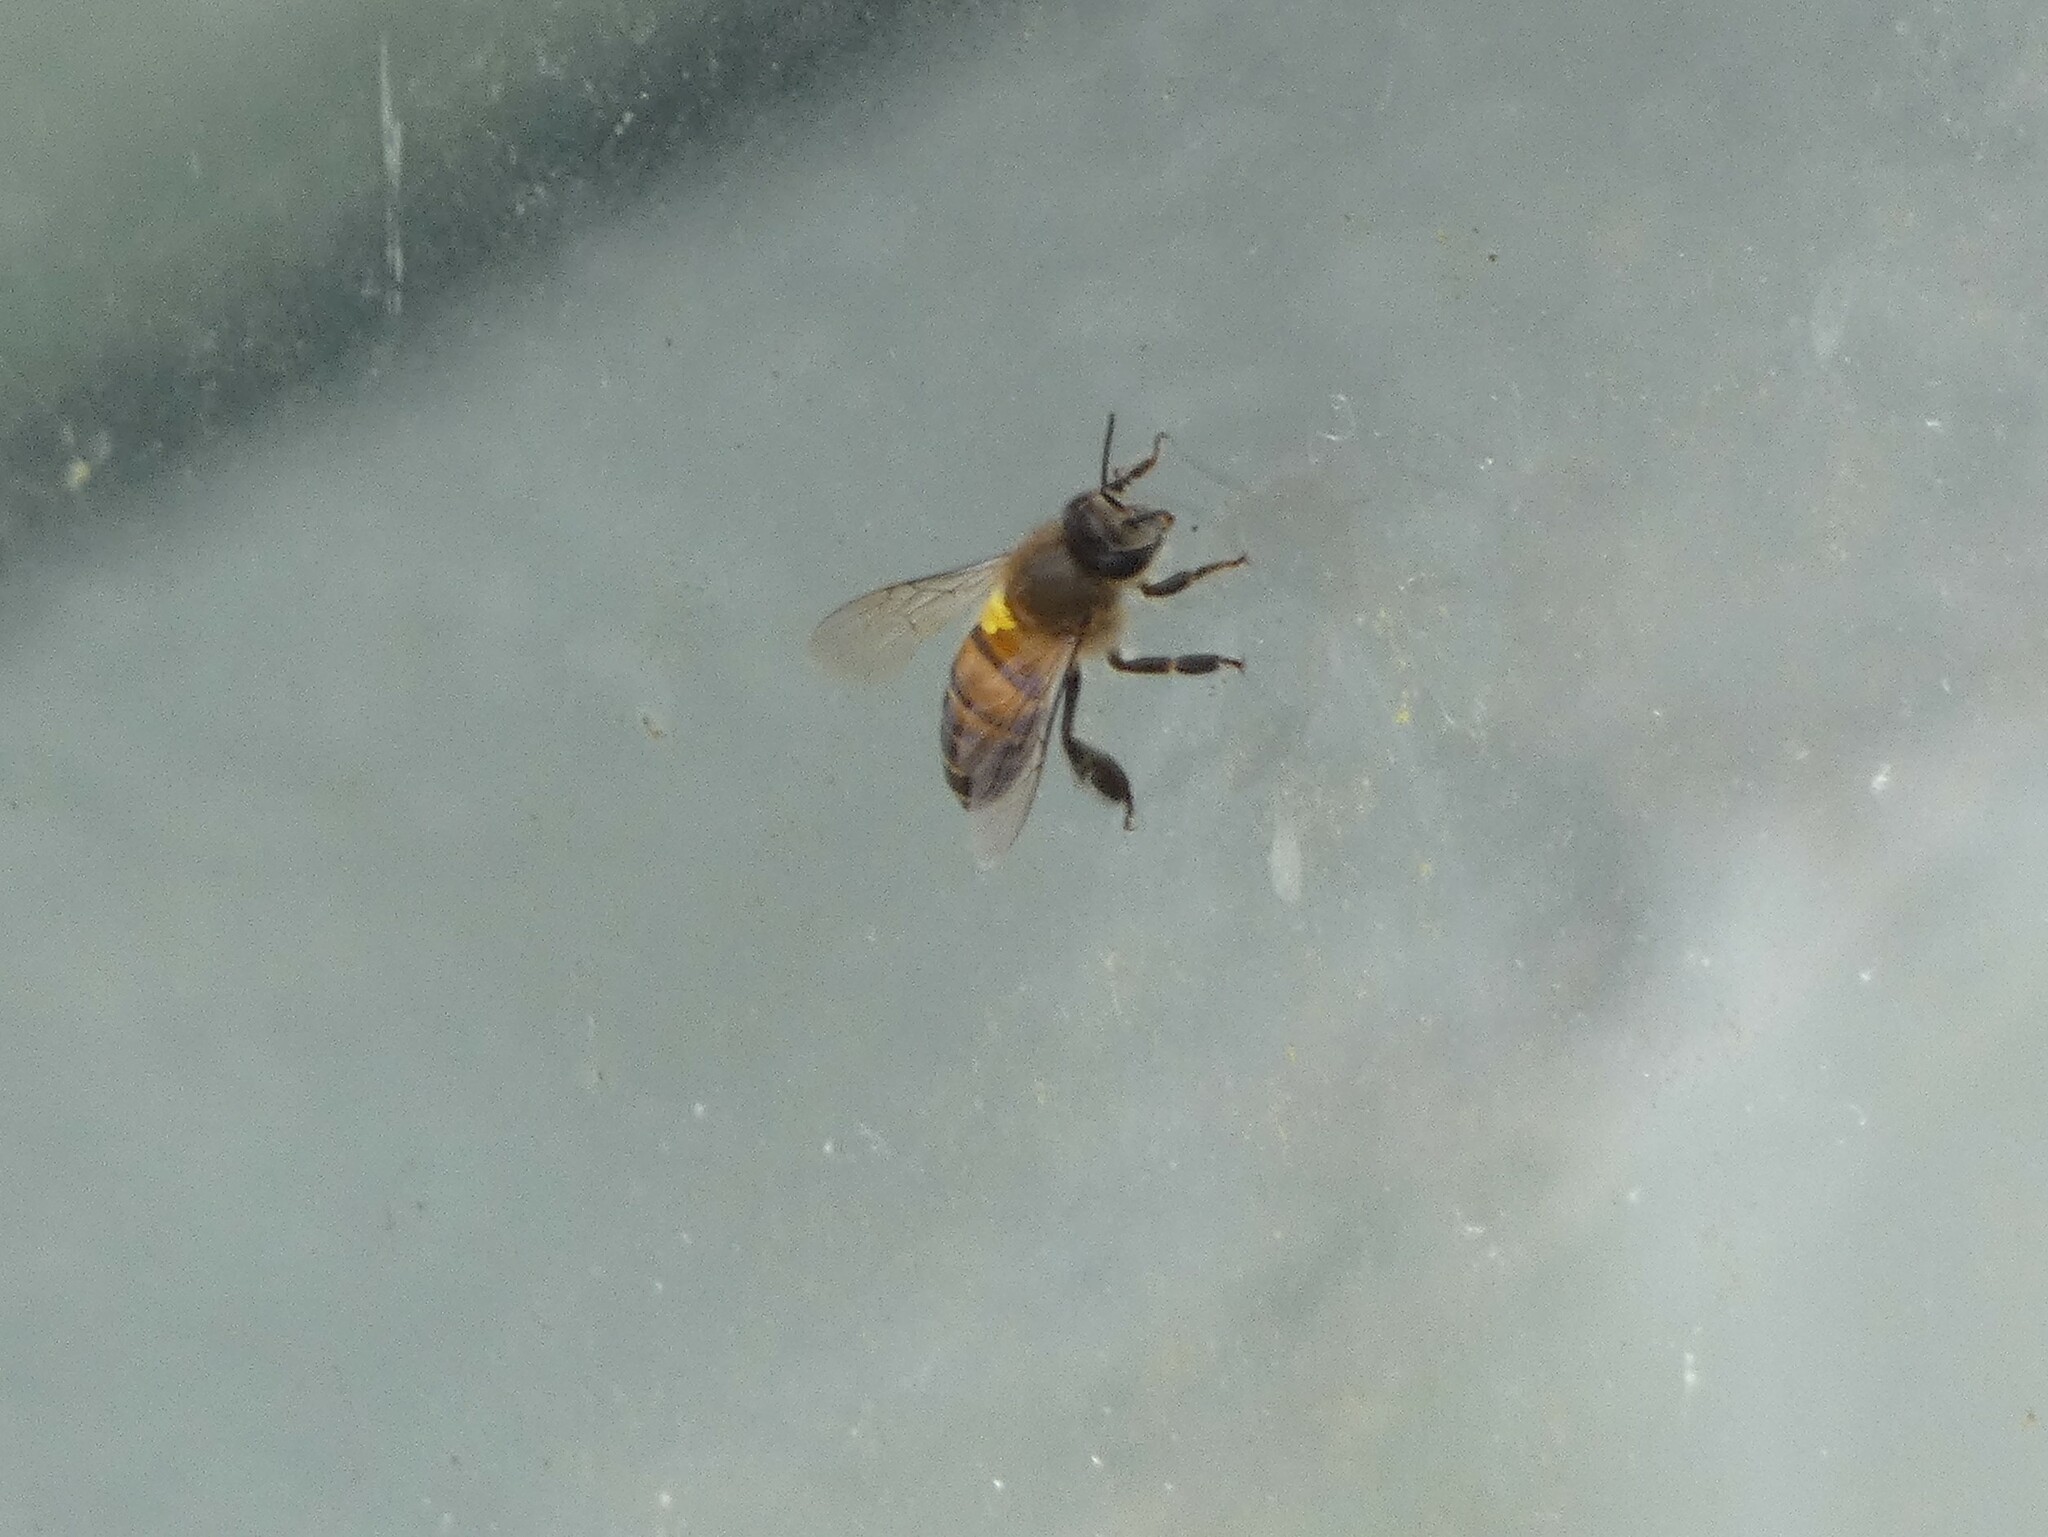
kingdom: Animalia
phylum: Arthropoda
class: Insecta
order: Hymenoptera
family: Apidae
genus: Apis
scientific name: Apis cerana
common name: Honey bee
